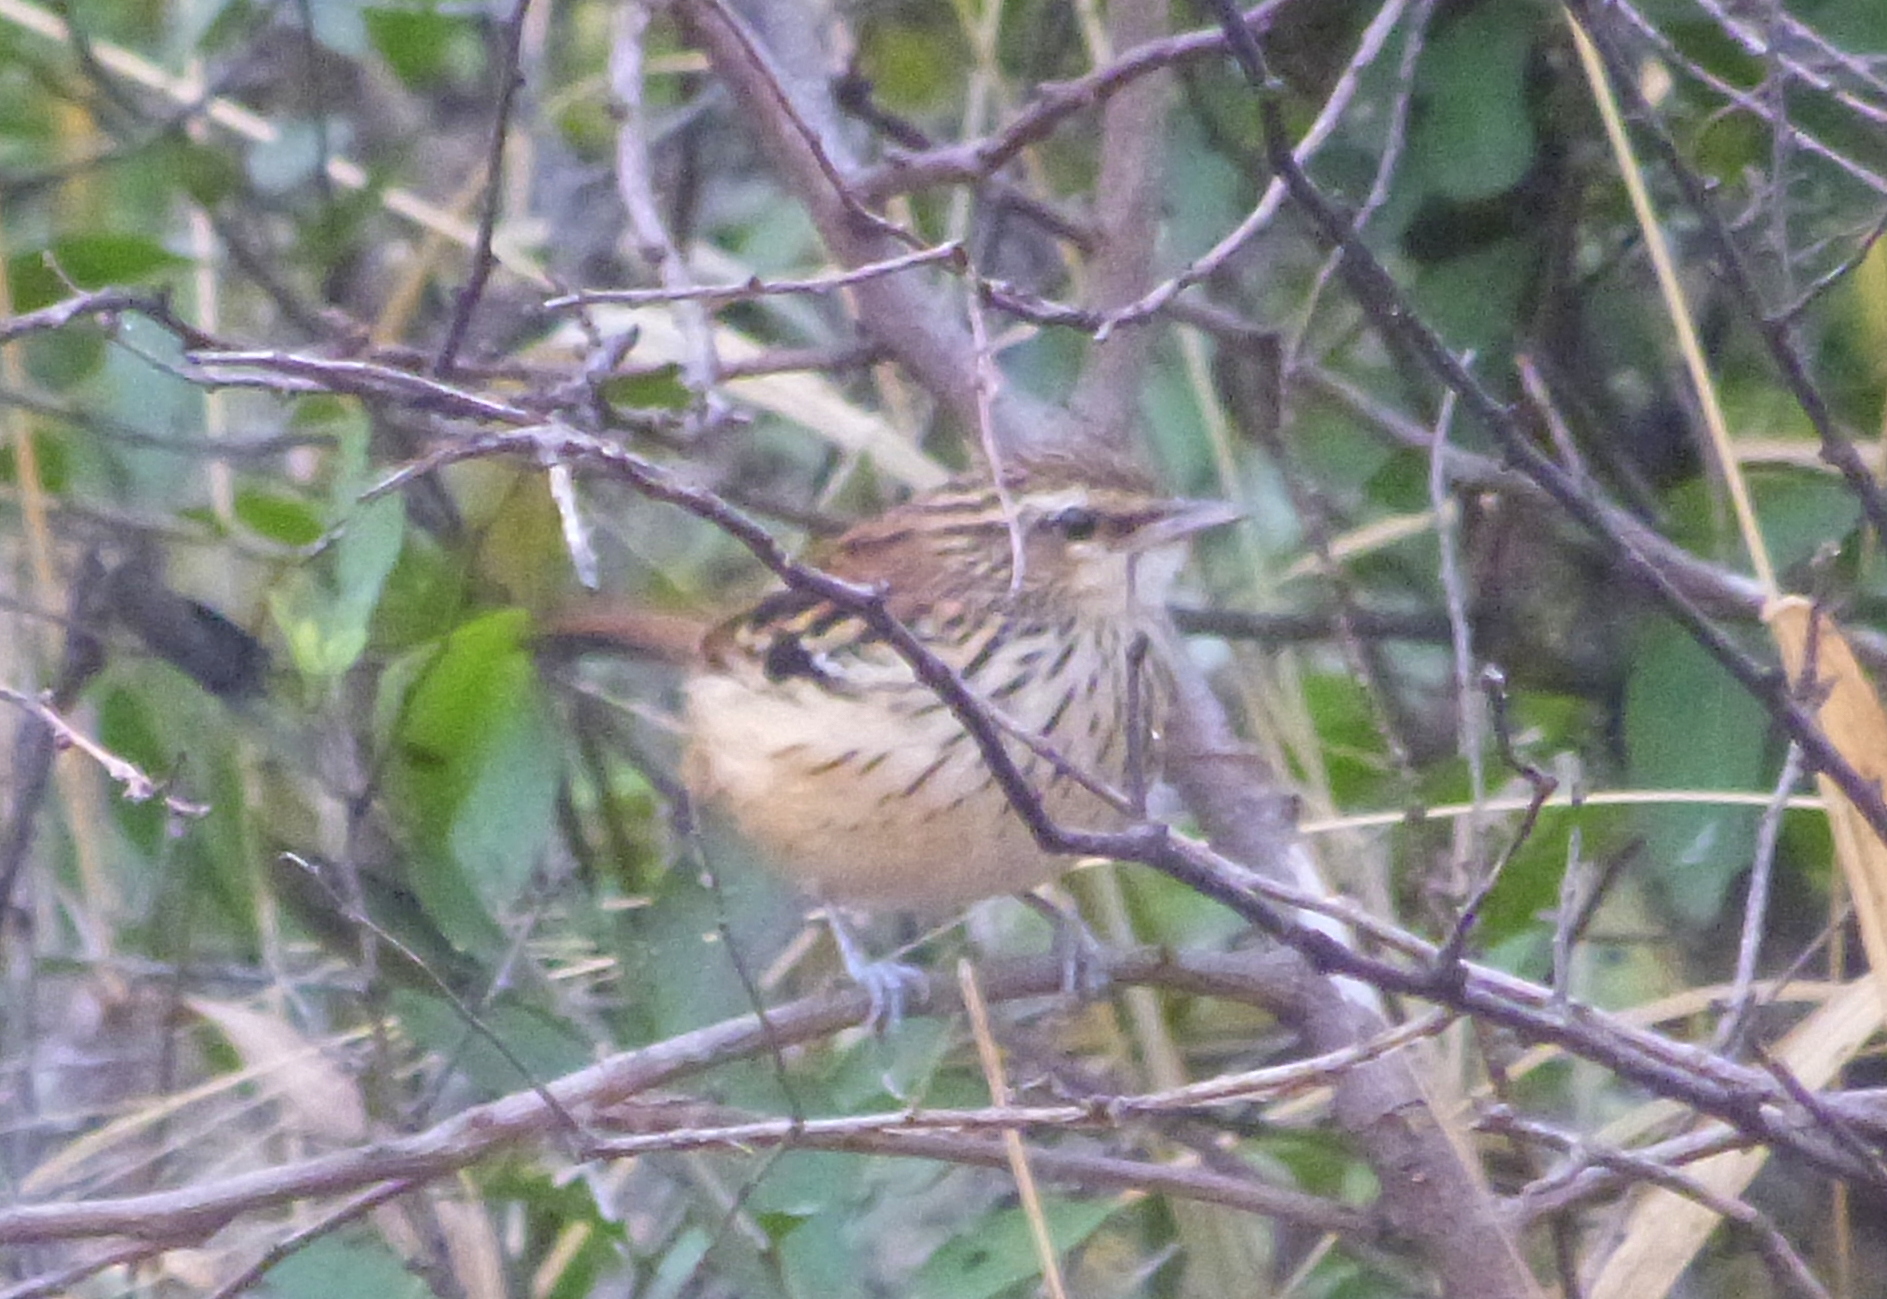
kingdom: Animalia
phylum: Chordata
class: Aves
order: Passeriformes
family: Thamnophilidae
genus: Myrmorchilus
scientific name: Myrmorchilus strigilatus
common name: Stripe-backed antbird
